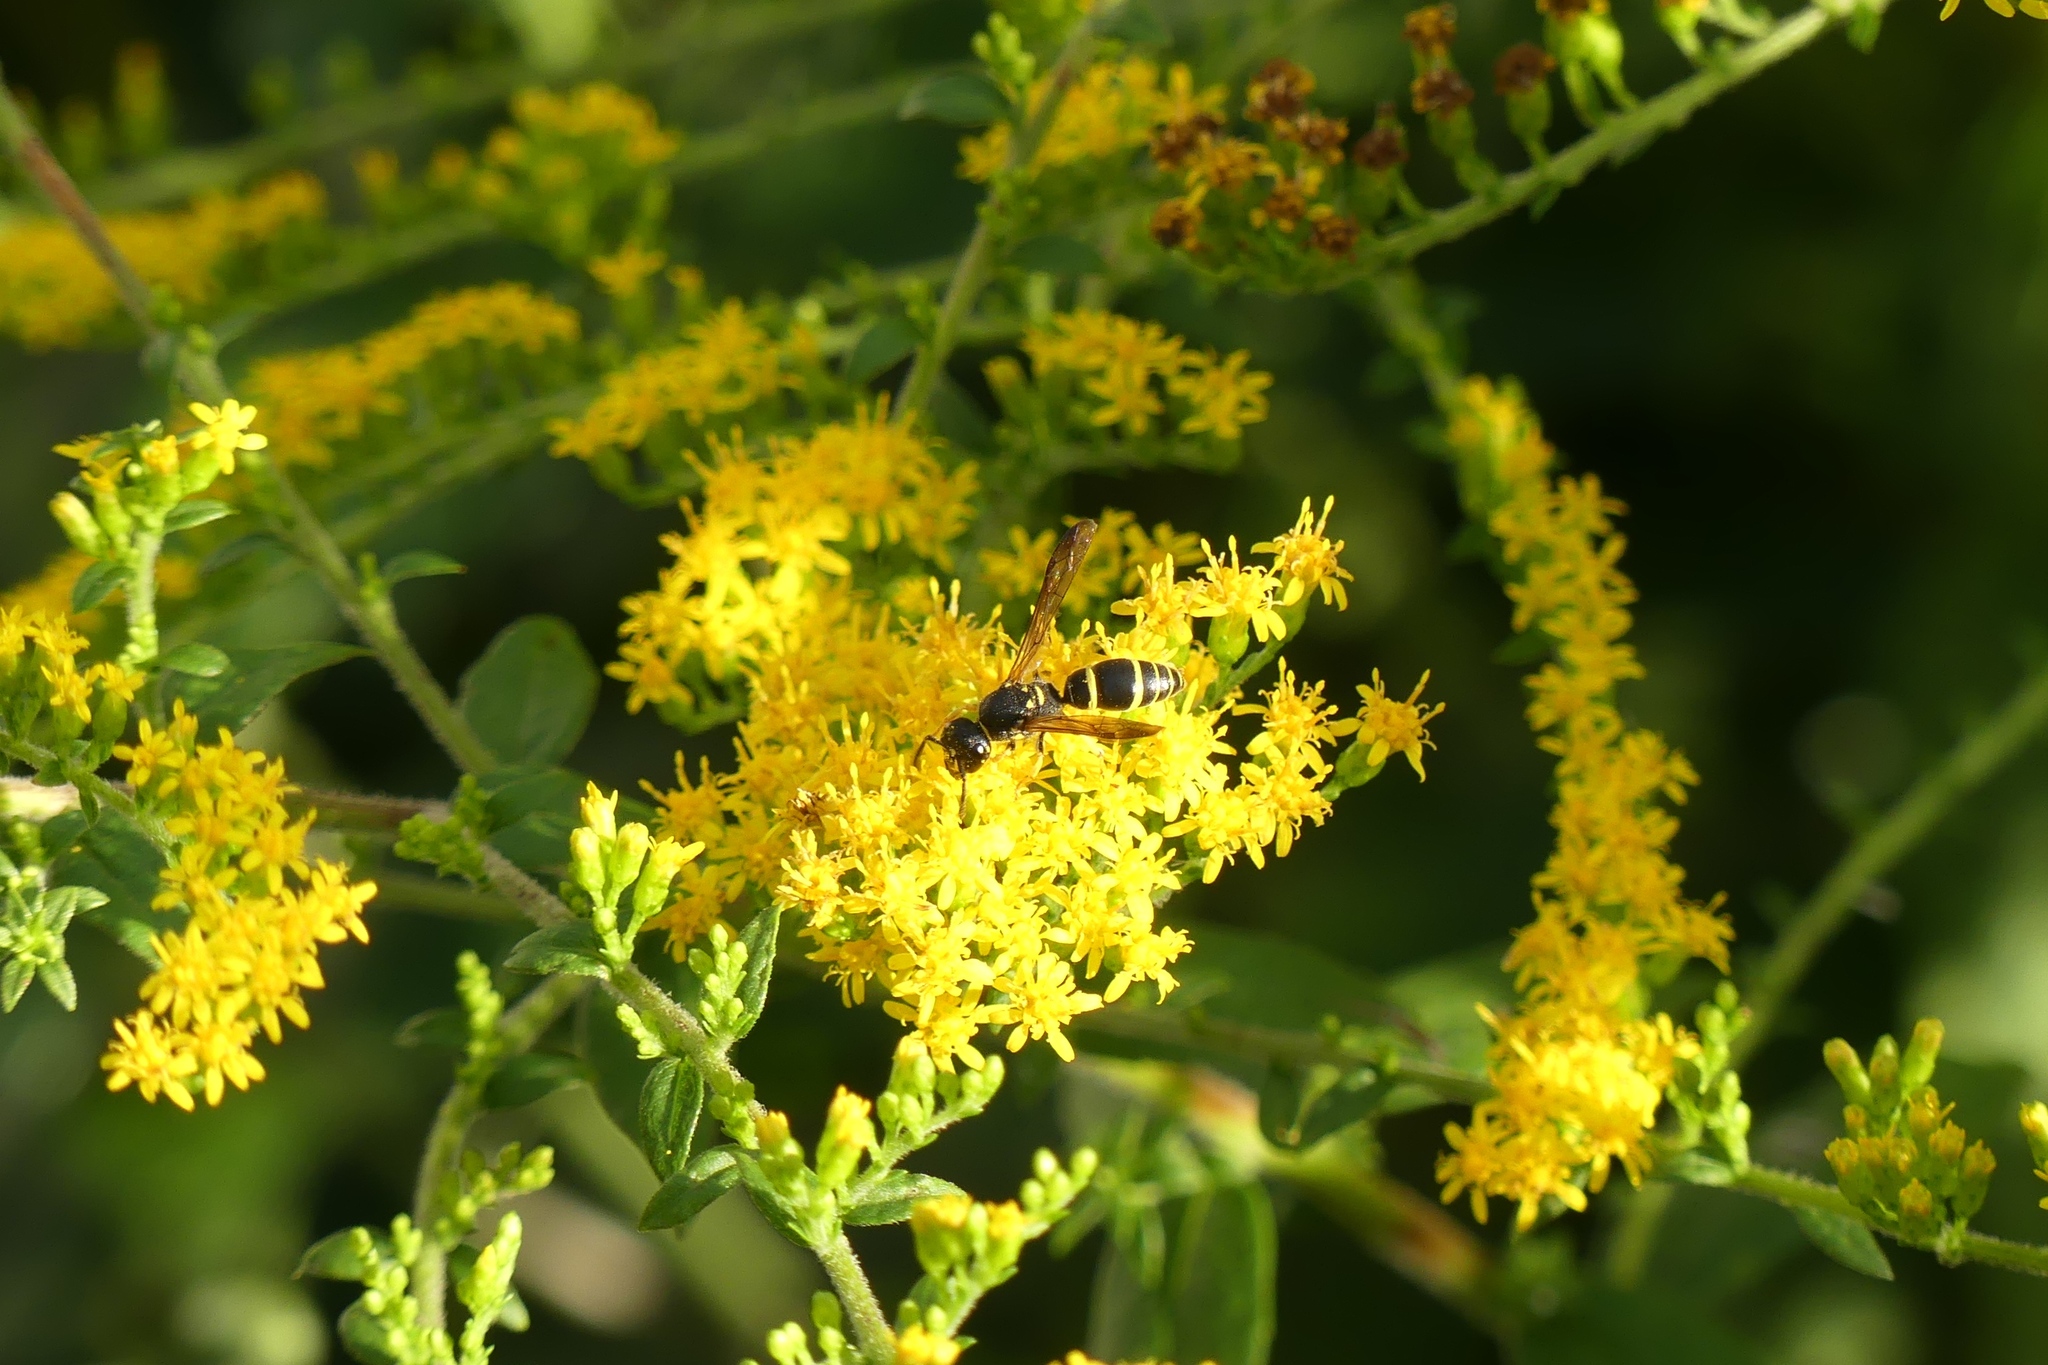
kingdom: Animalia
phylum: Arthropoda
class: Insecta
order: Hymenoptera
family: Vespidae
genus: Ancistrocerus
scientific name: Ancistrocerus adiabatus
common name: Bramble mason wasp
